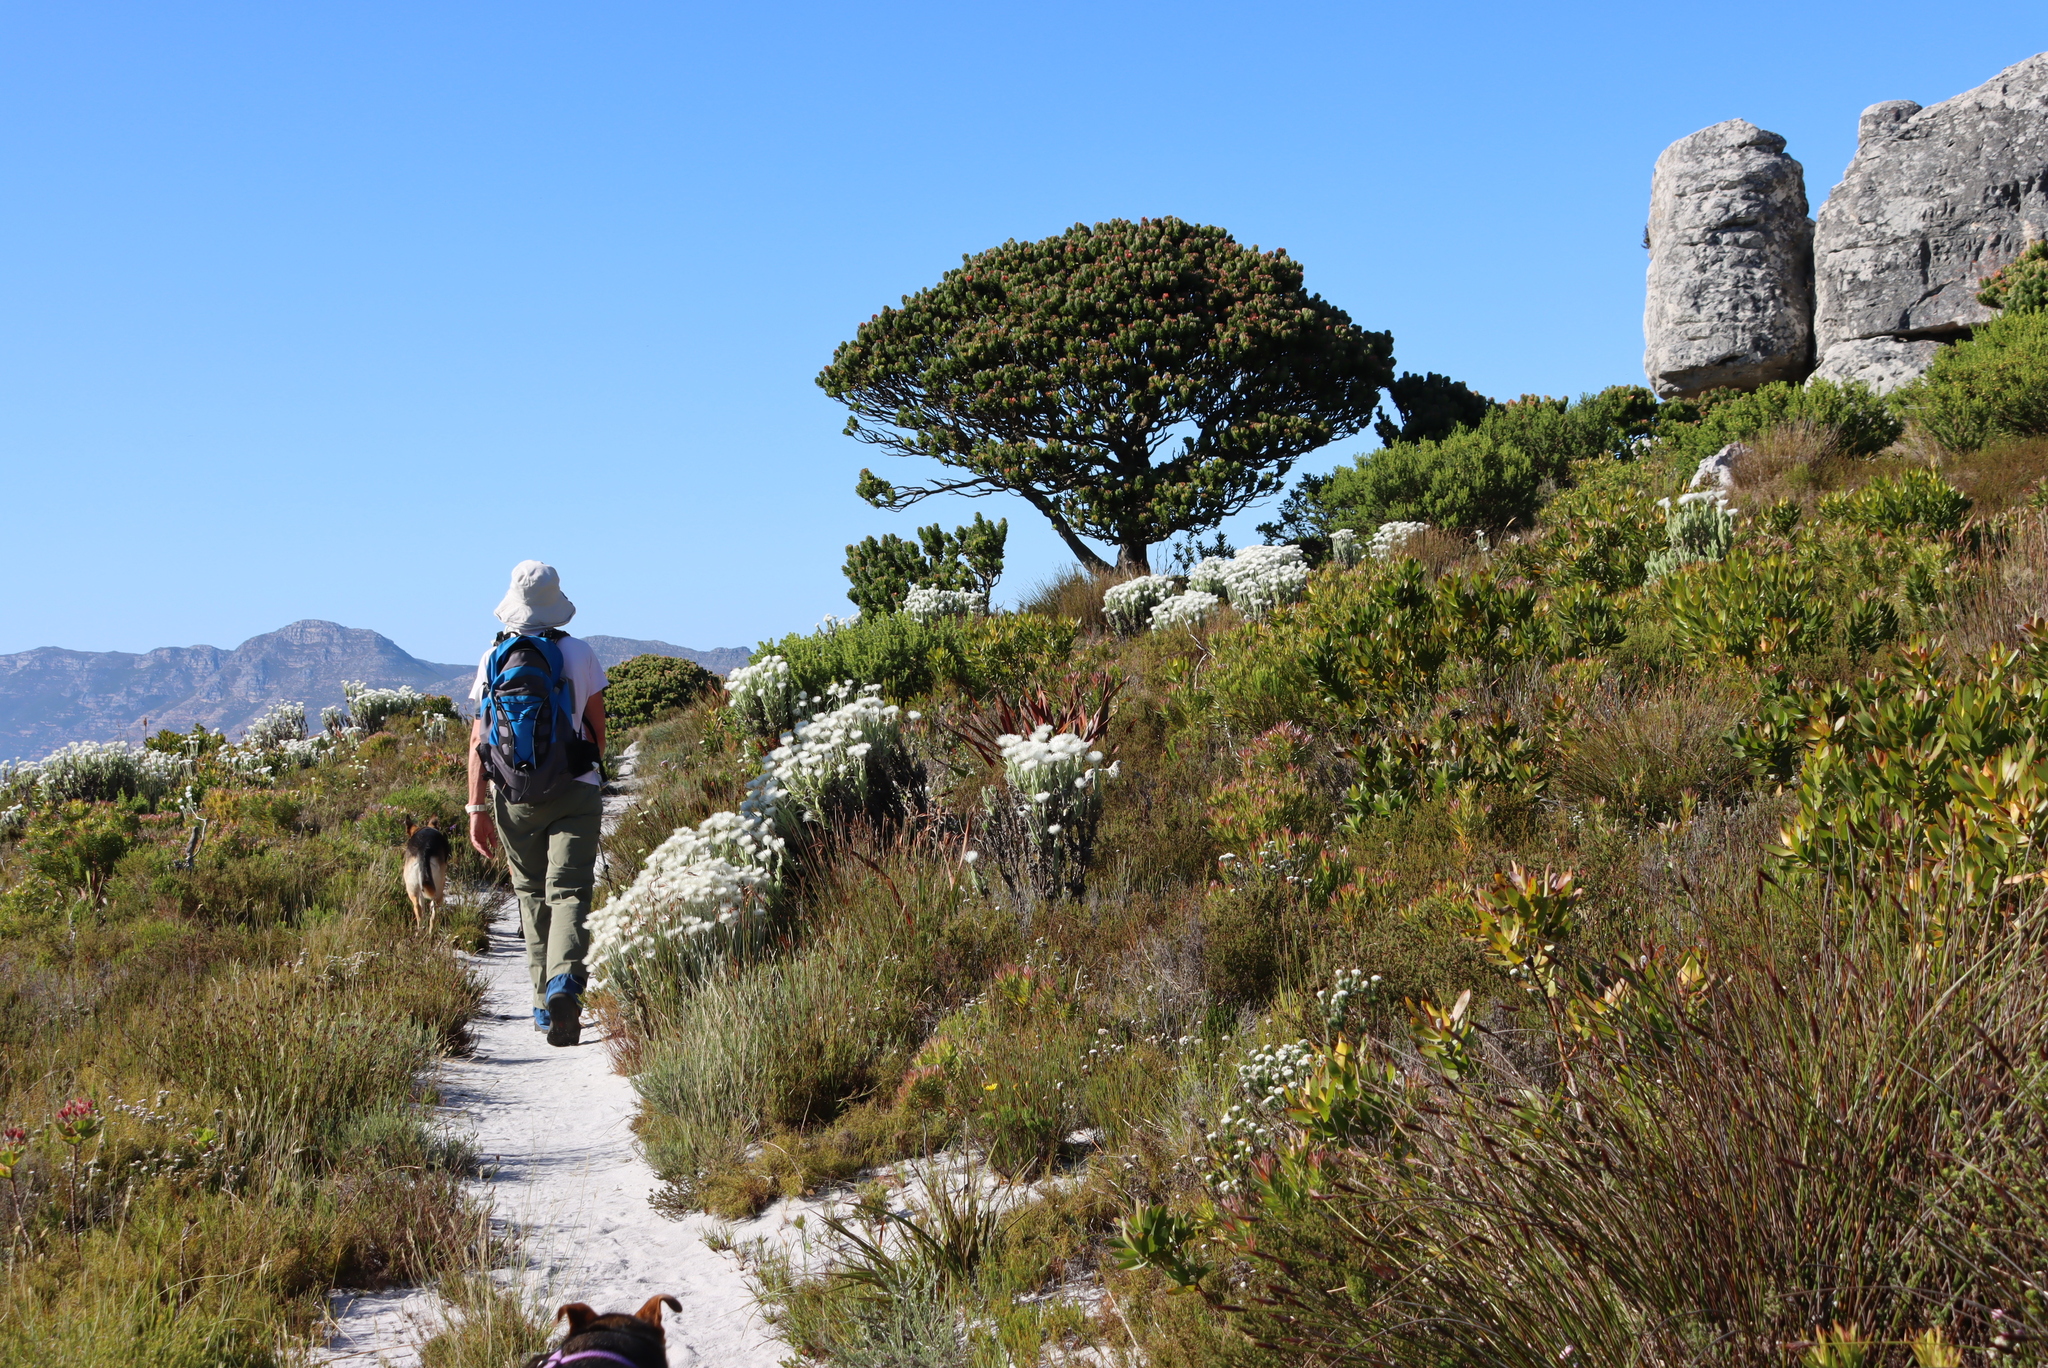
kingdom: Plantae
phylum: Tracheophyta
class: Magnoliopsida
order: Proteales
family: Proteaceae
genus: Mimetes
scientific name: Mimetes fimbriifolius
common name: Fringed bottlebrush
